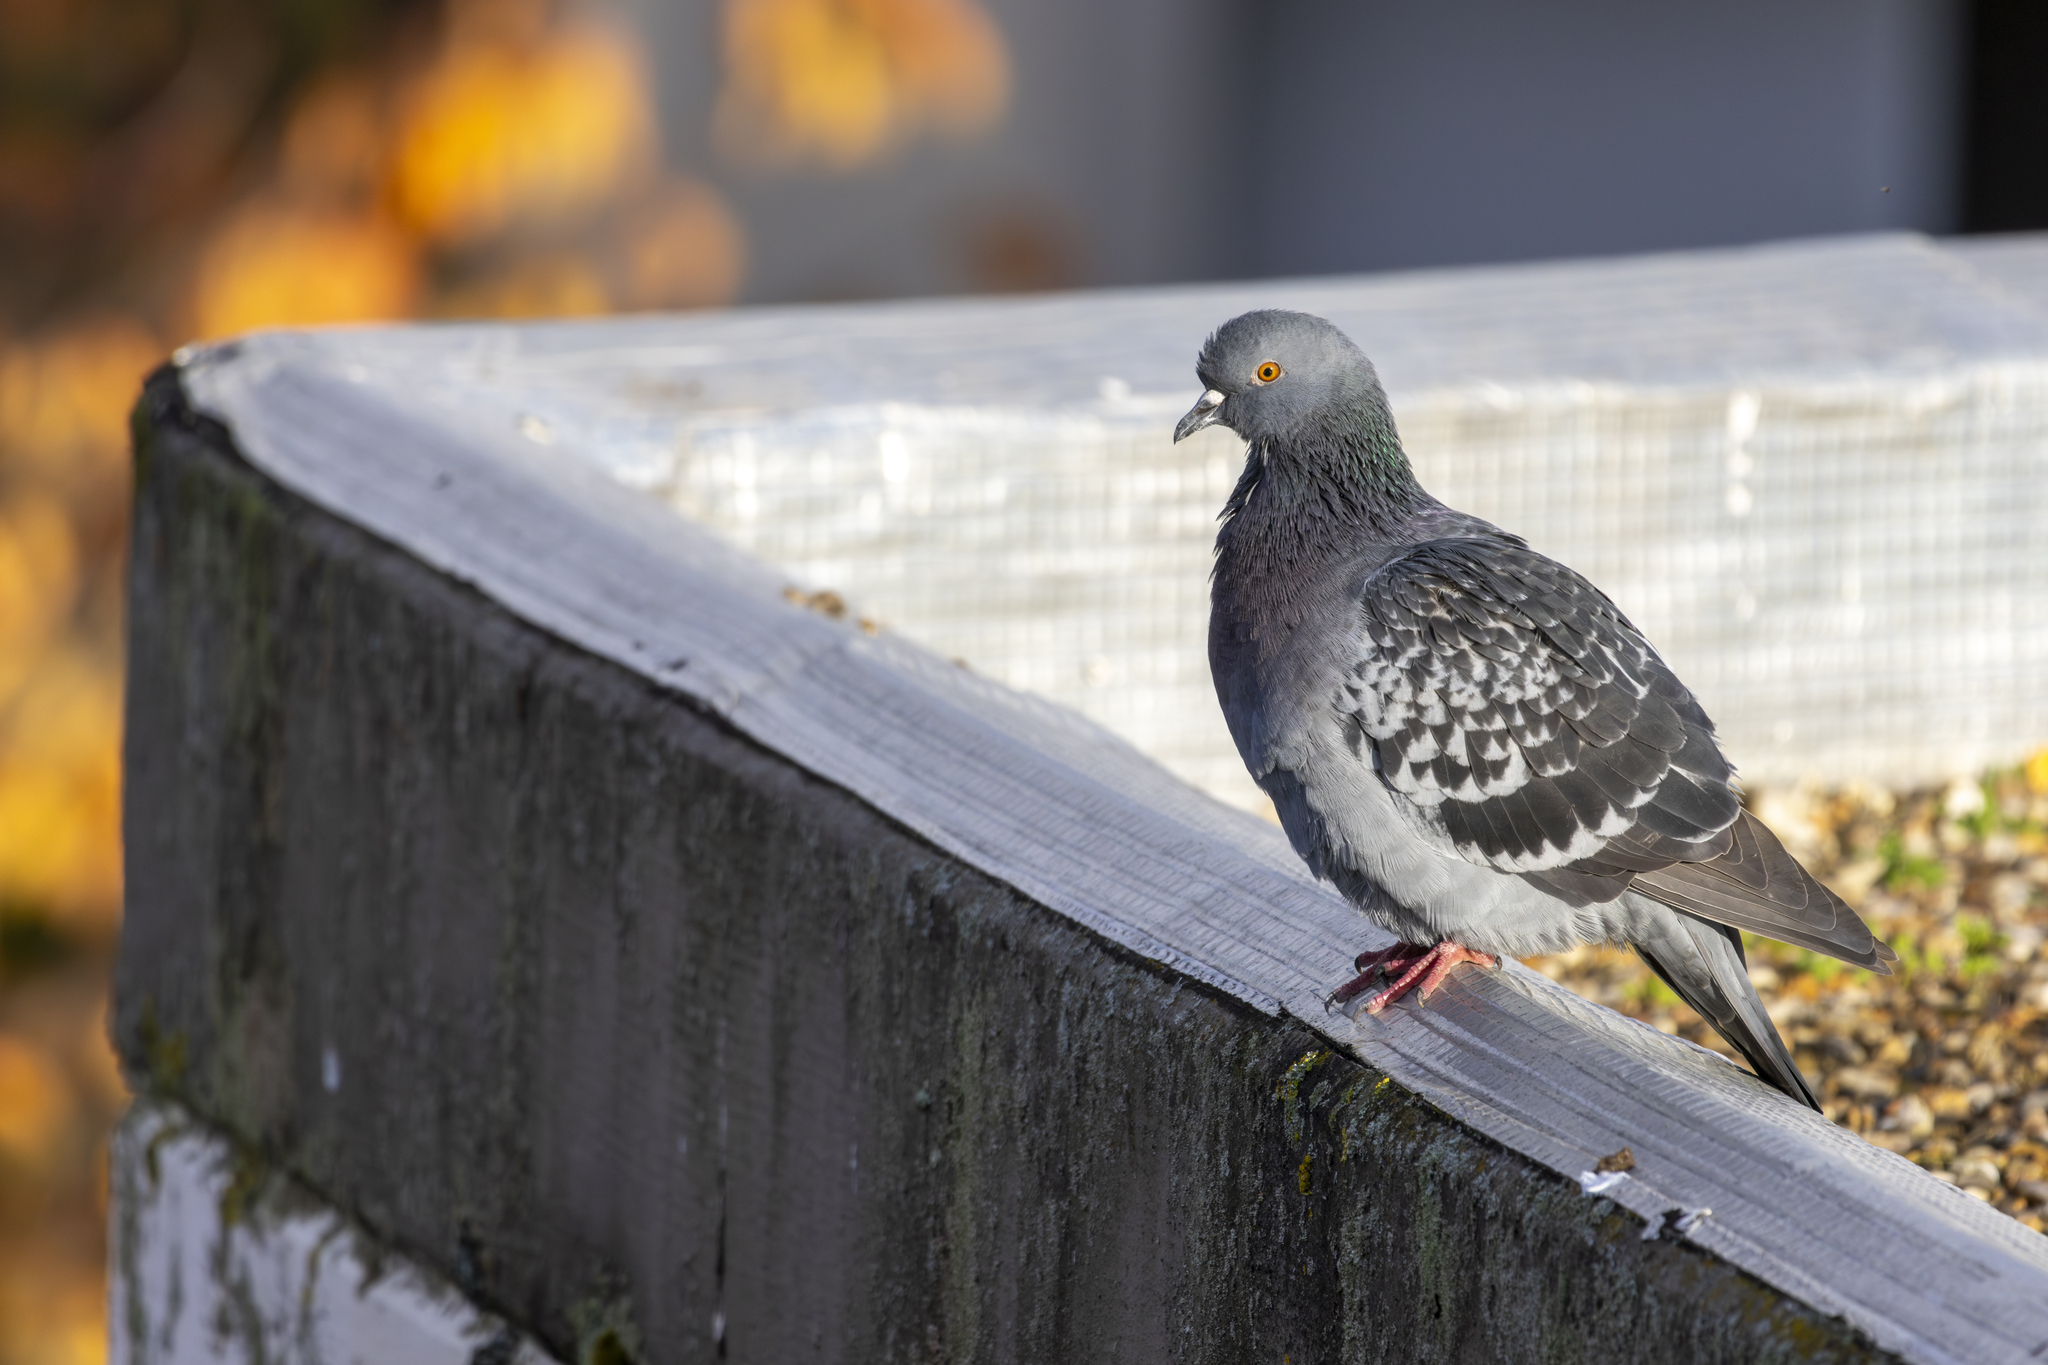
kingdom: Animalia
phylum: Chordata
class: Aves
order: Columbiformes
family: Columbidae
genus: Columba
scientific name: Columba livia
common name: Rock pigeon
